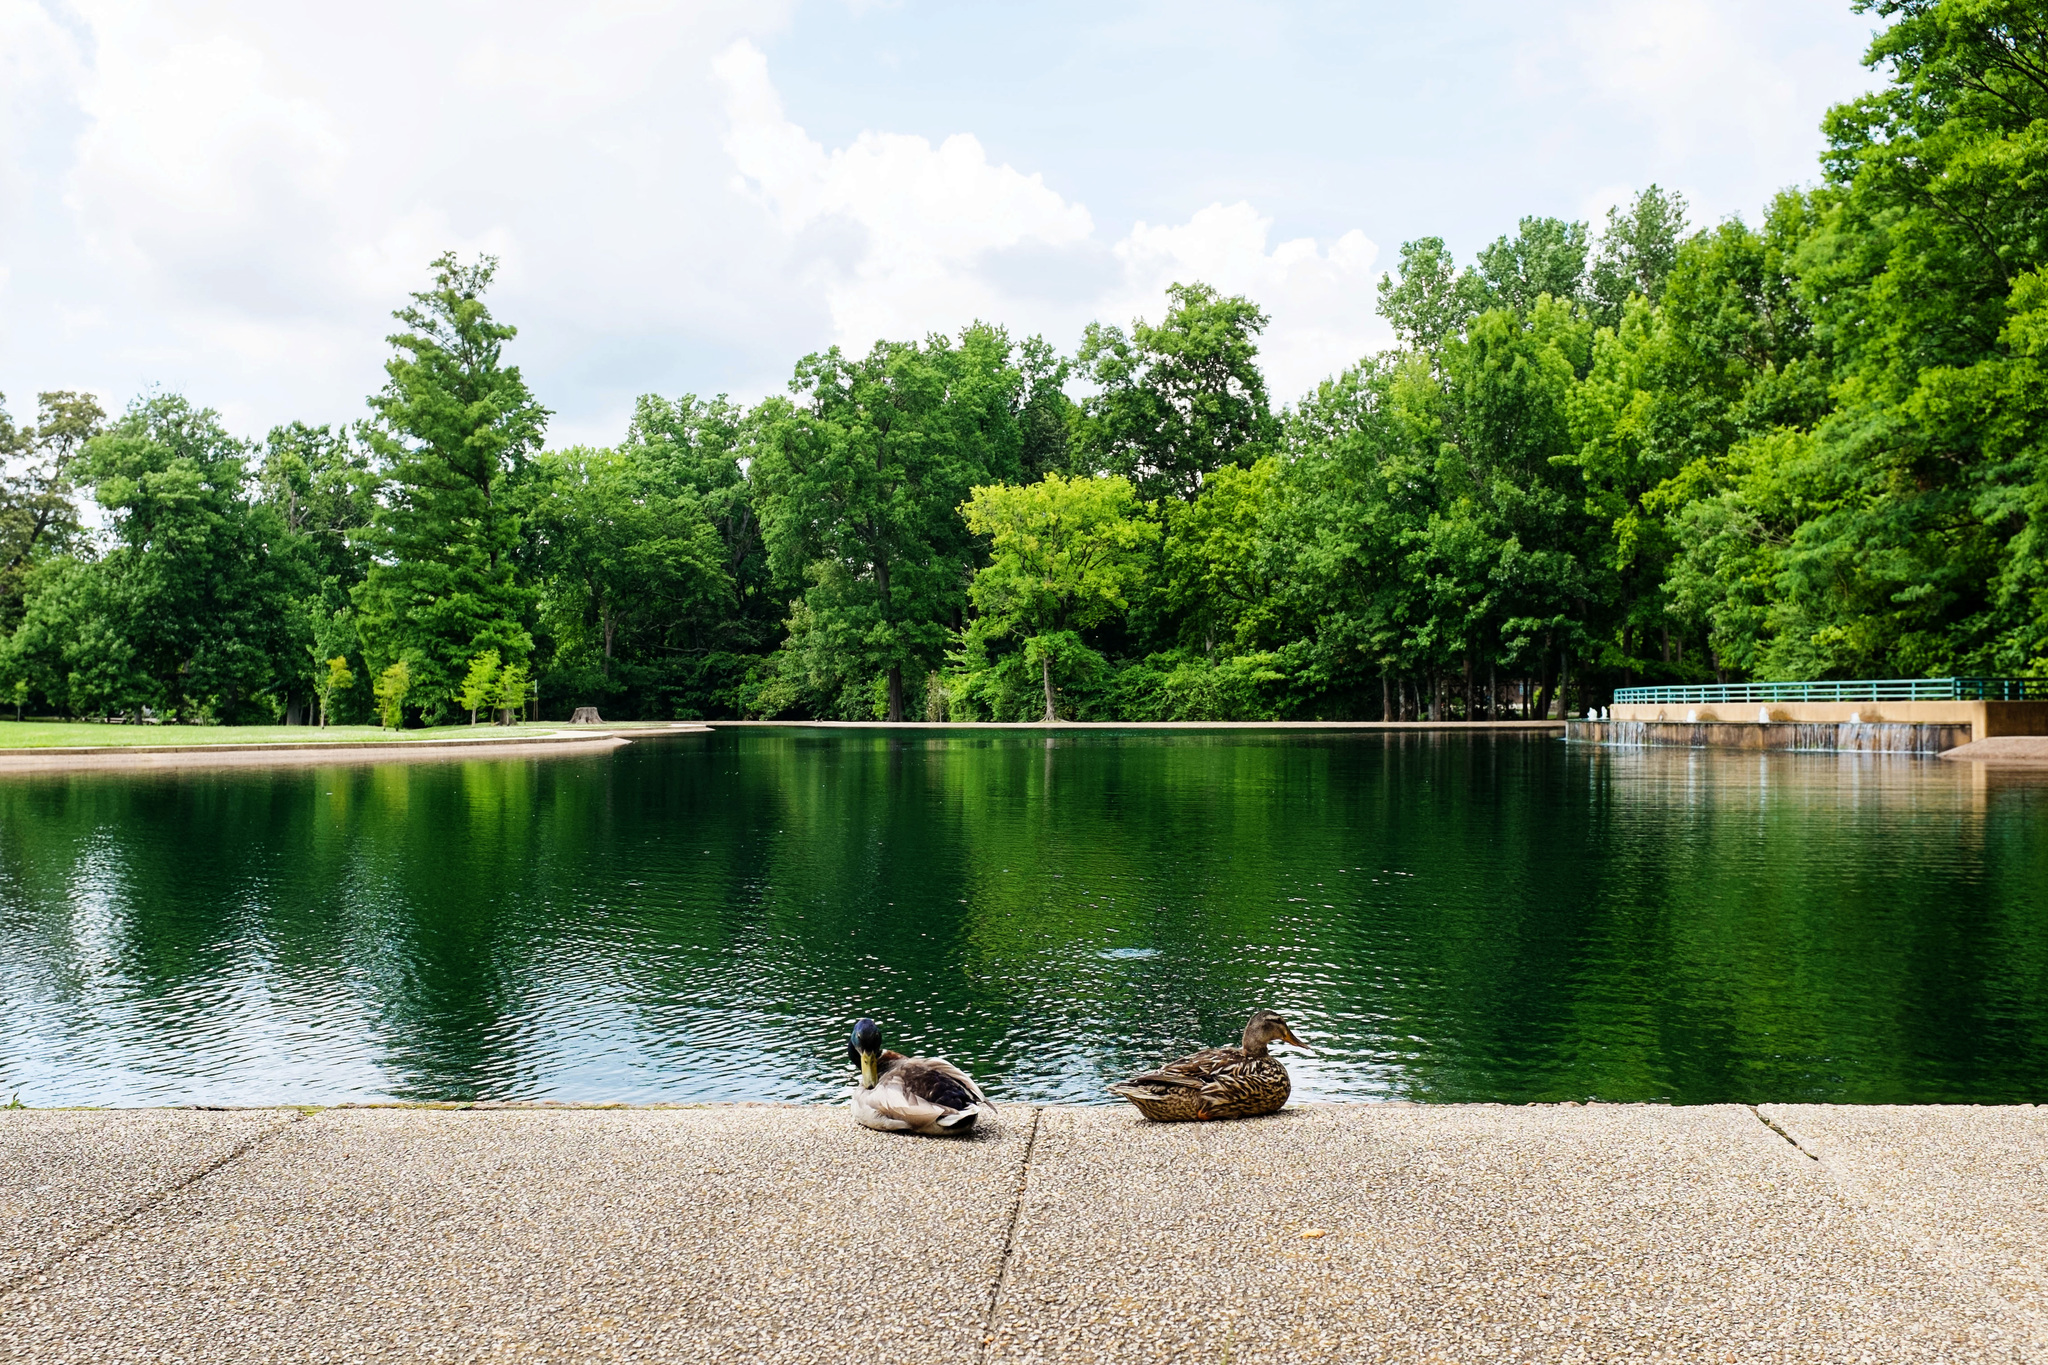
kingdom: Animalia
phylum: Chordata
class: Aves
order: Anseriformes
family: Anatidae
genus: Anas
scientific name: Anas platyrhynchos
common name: Mallard
